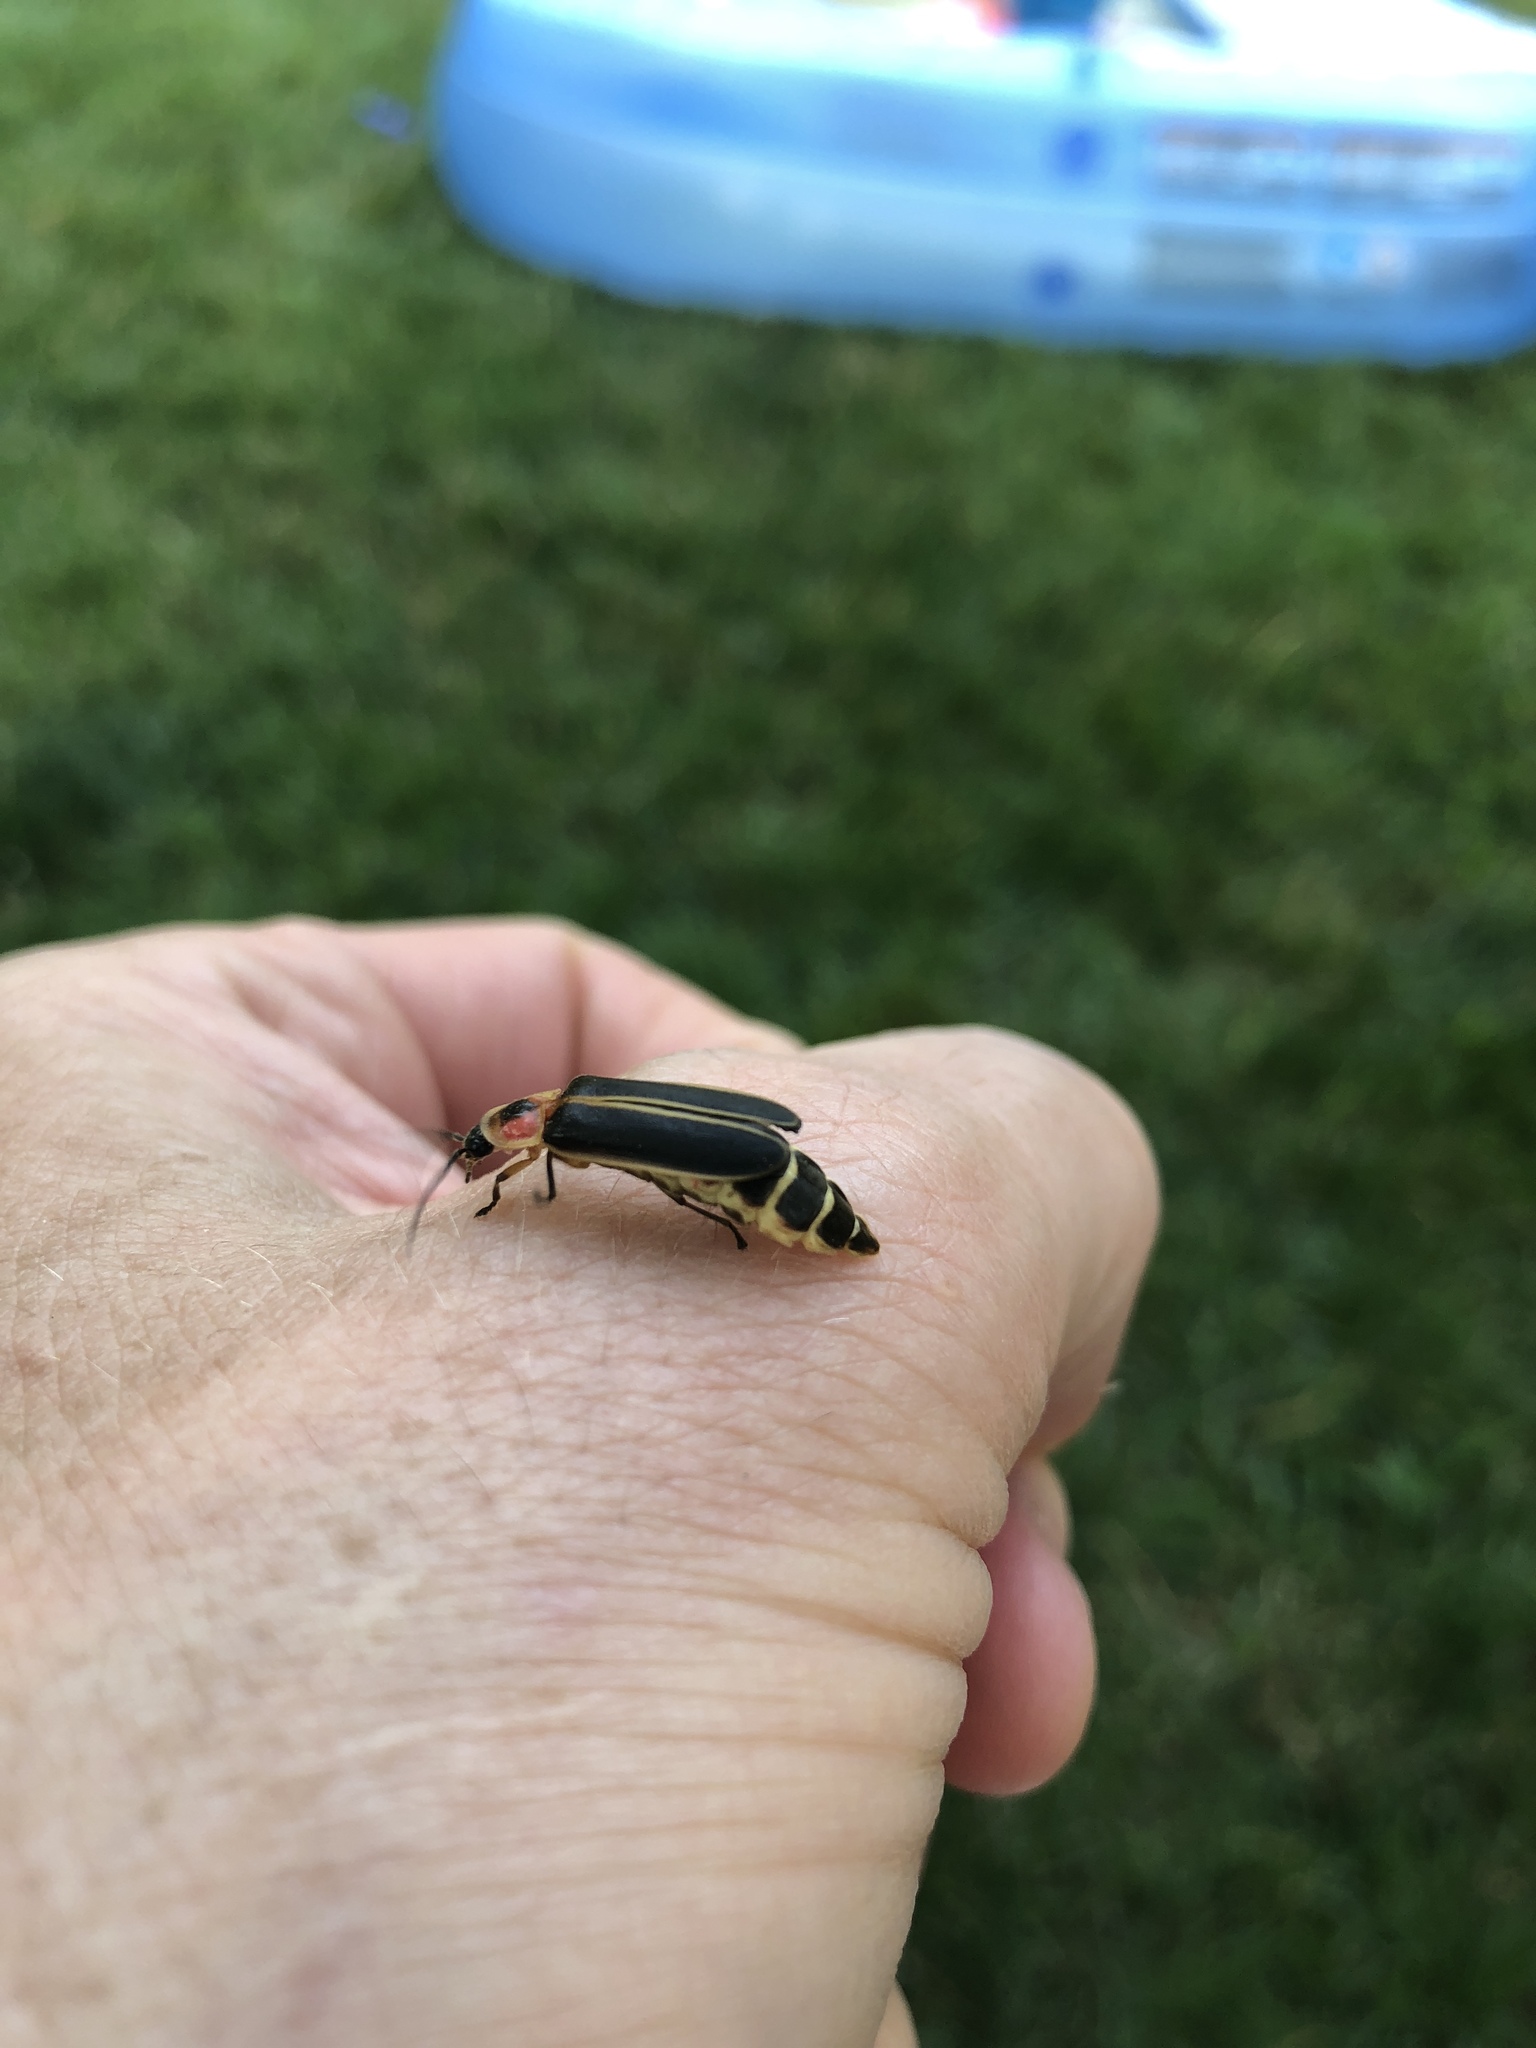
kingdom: Animalia
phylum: Arthropoda
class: Insecta
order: Coleoptera
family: Lampyridae
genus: Photinus
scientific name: Photinus pyralis
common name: Big dipper firefly
